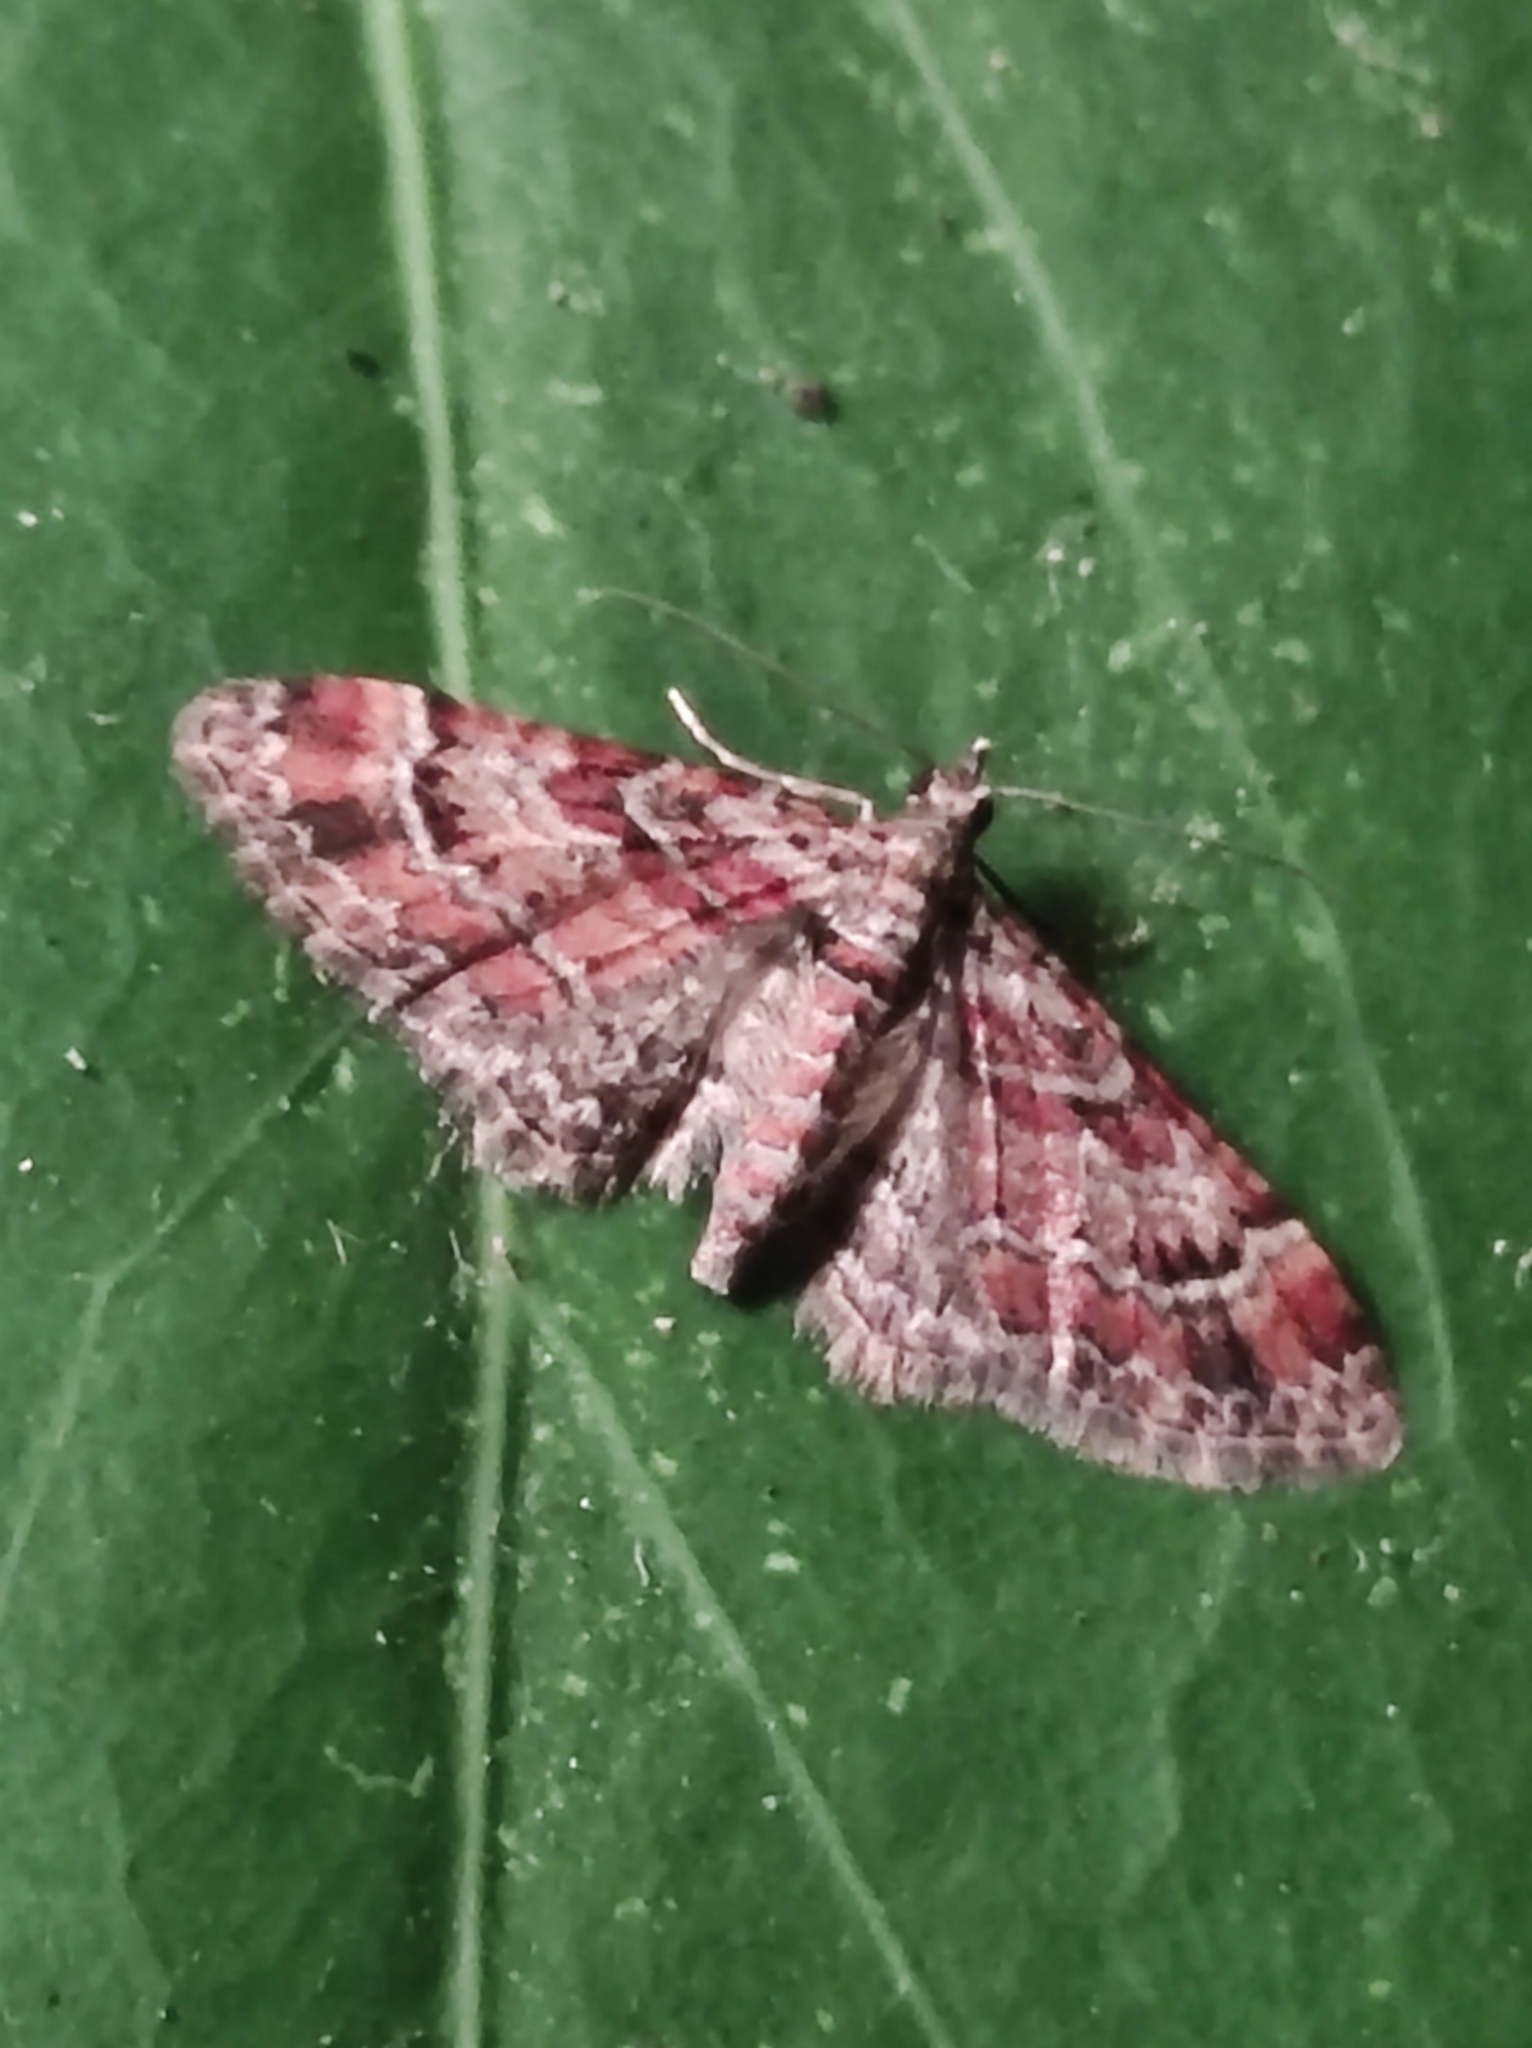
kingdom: Animalia
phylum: Arthropoda
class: Insecta
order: Lepidoptera
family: Geometridae
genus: Gymnoscelis
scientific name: Gymnoscelis rufifasciata
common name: Double-striped pug
